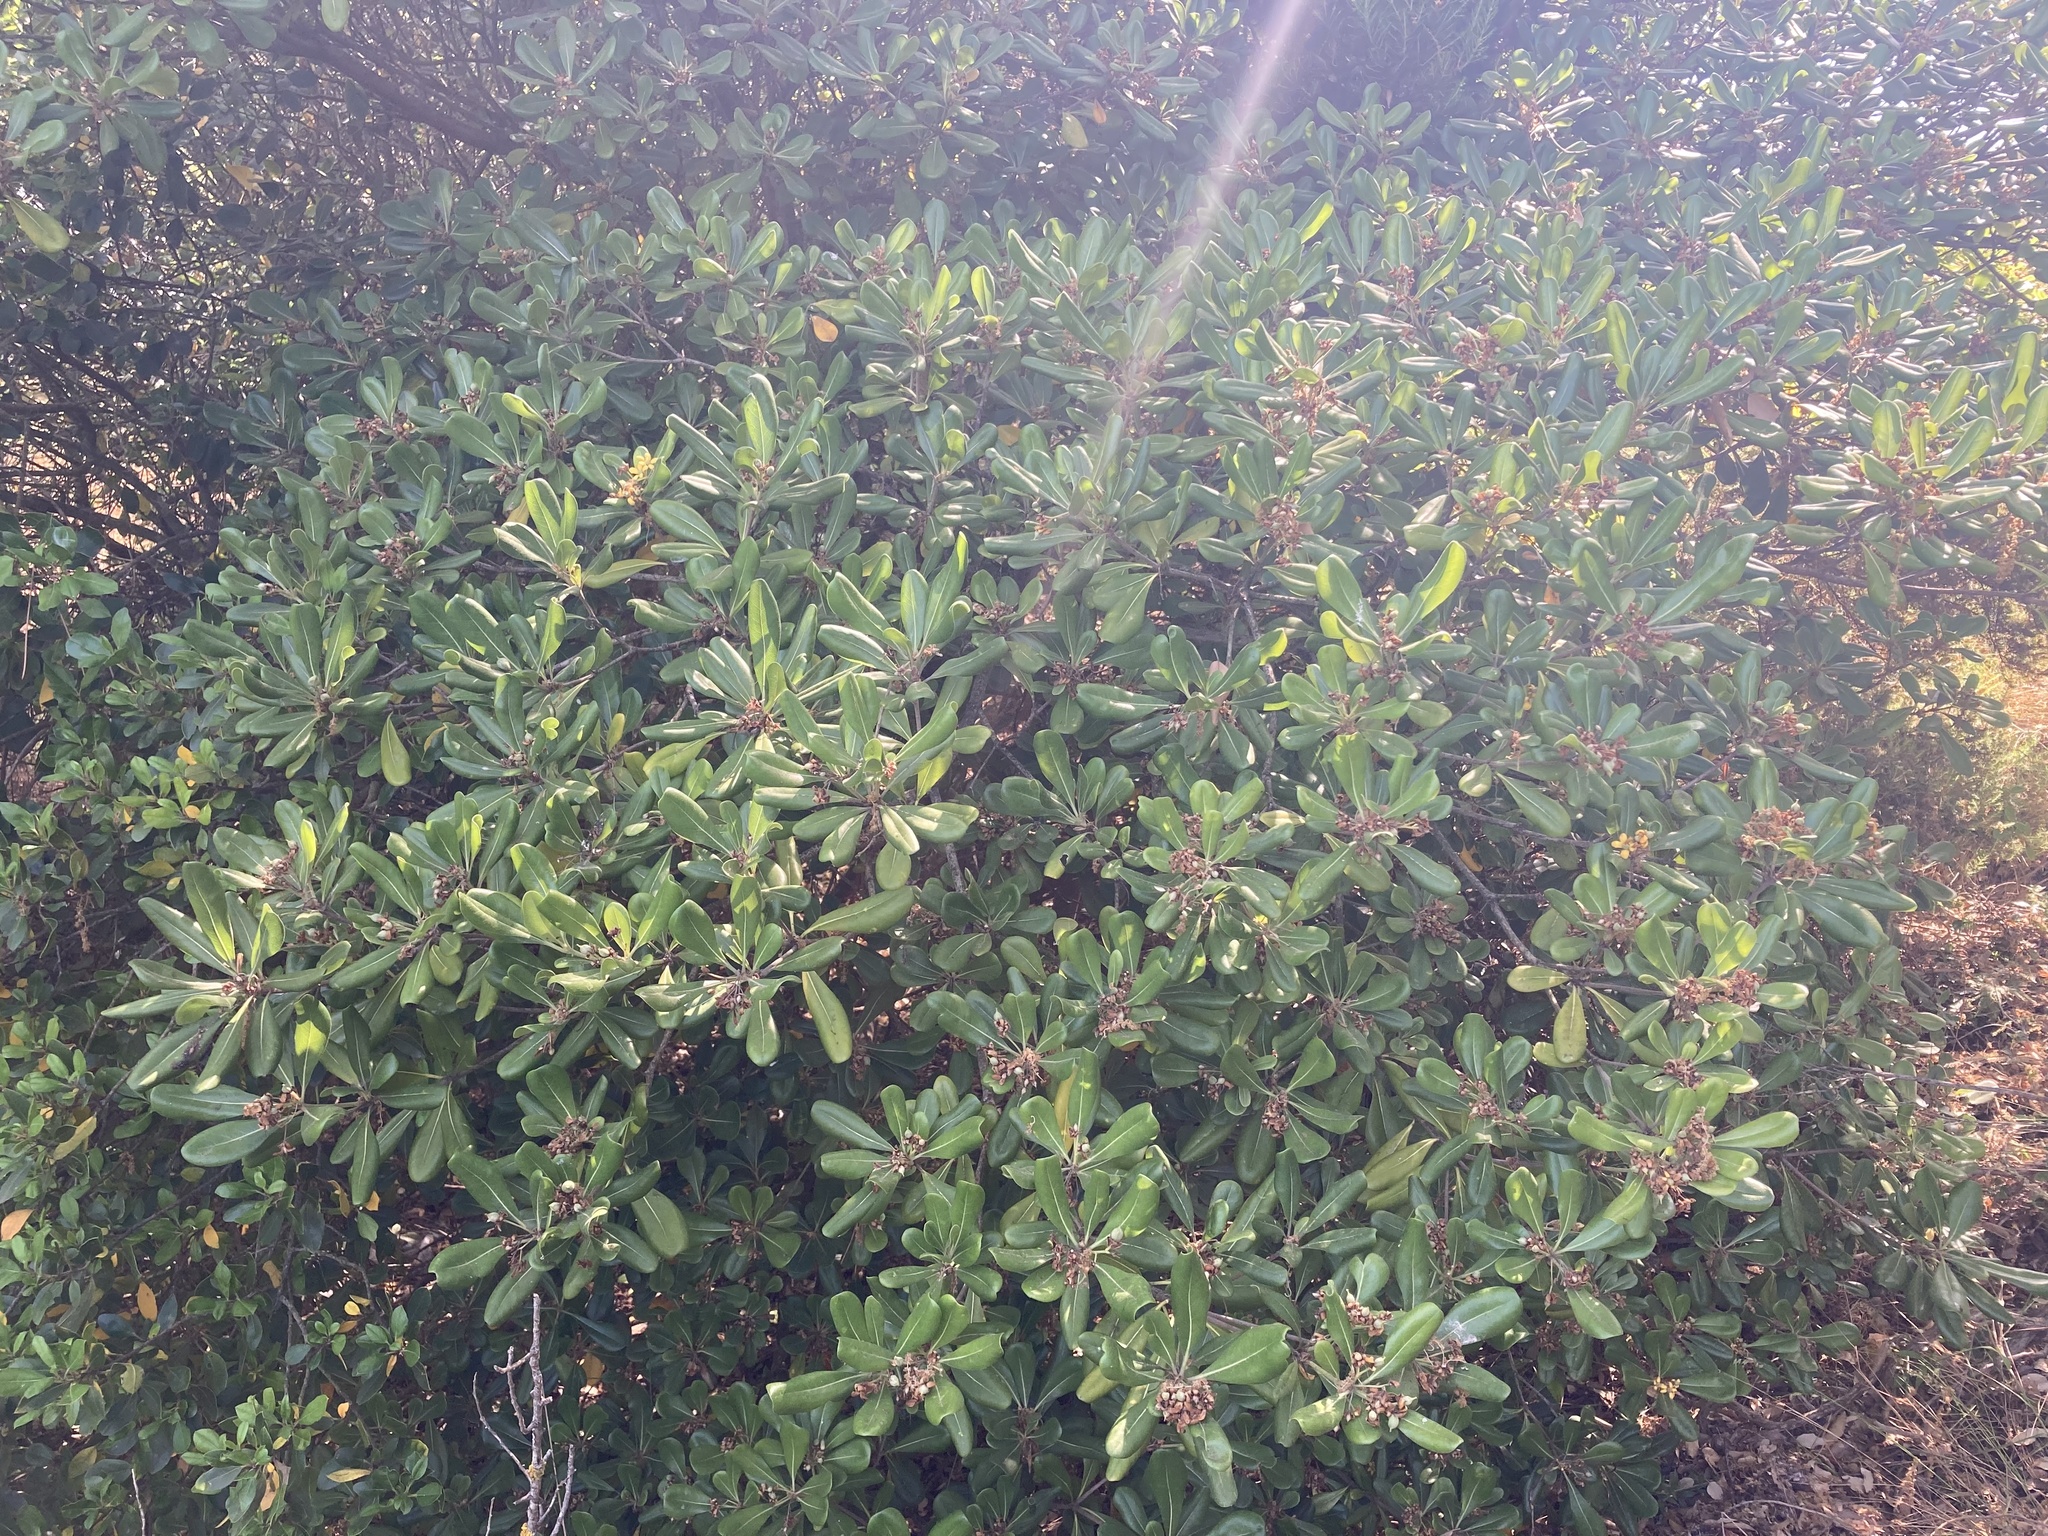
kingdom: Plantae
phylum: Tracheophyta
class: Magnoliopsida
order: Apiales
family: Pittosporaceae
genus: Pittosporum
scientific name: Pittosporum tobira
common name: Japanese cheesewood
